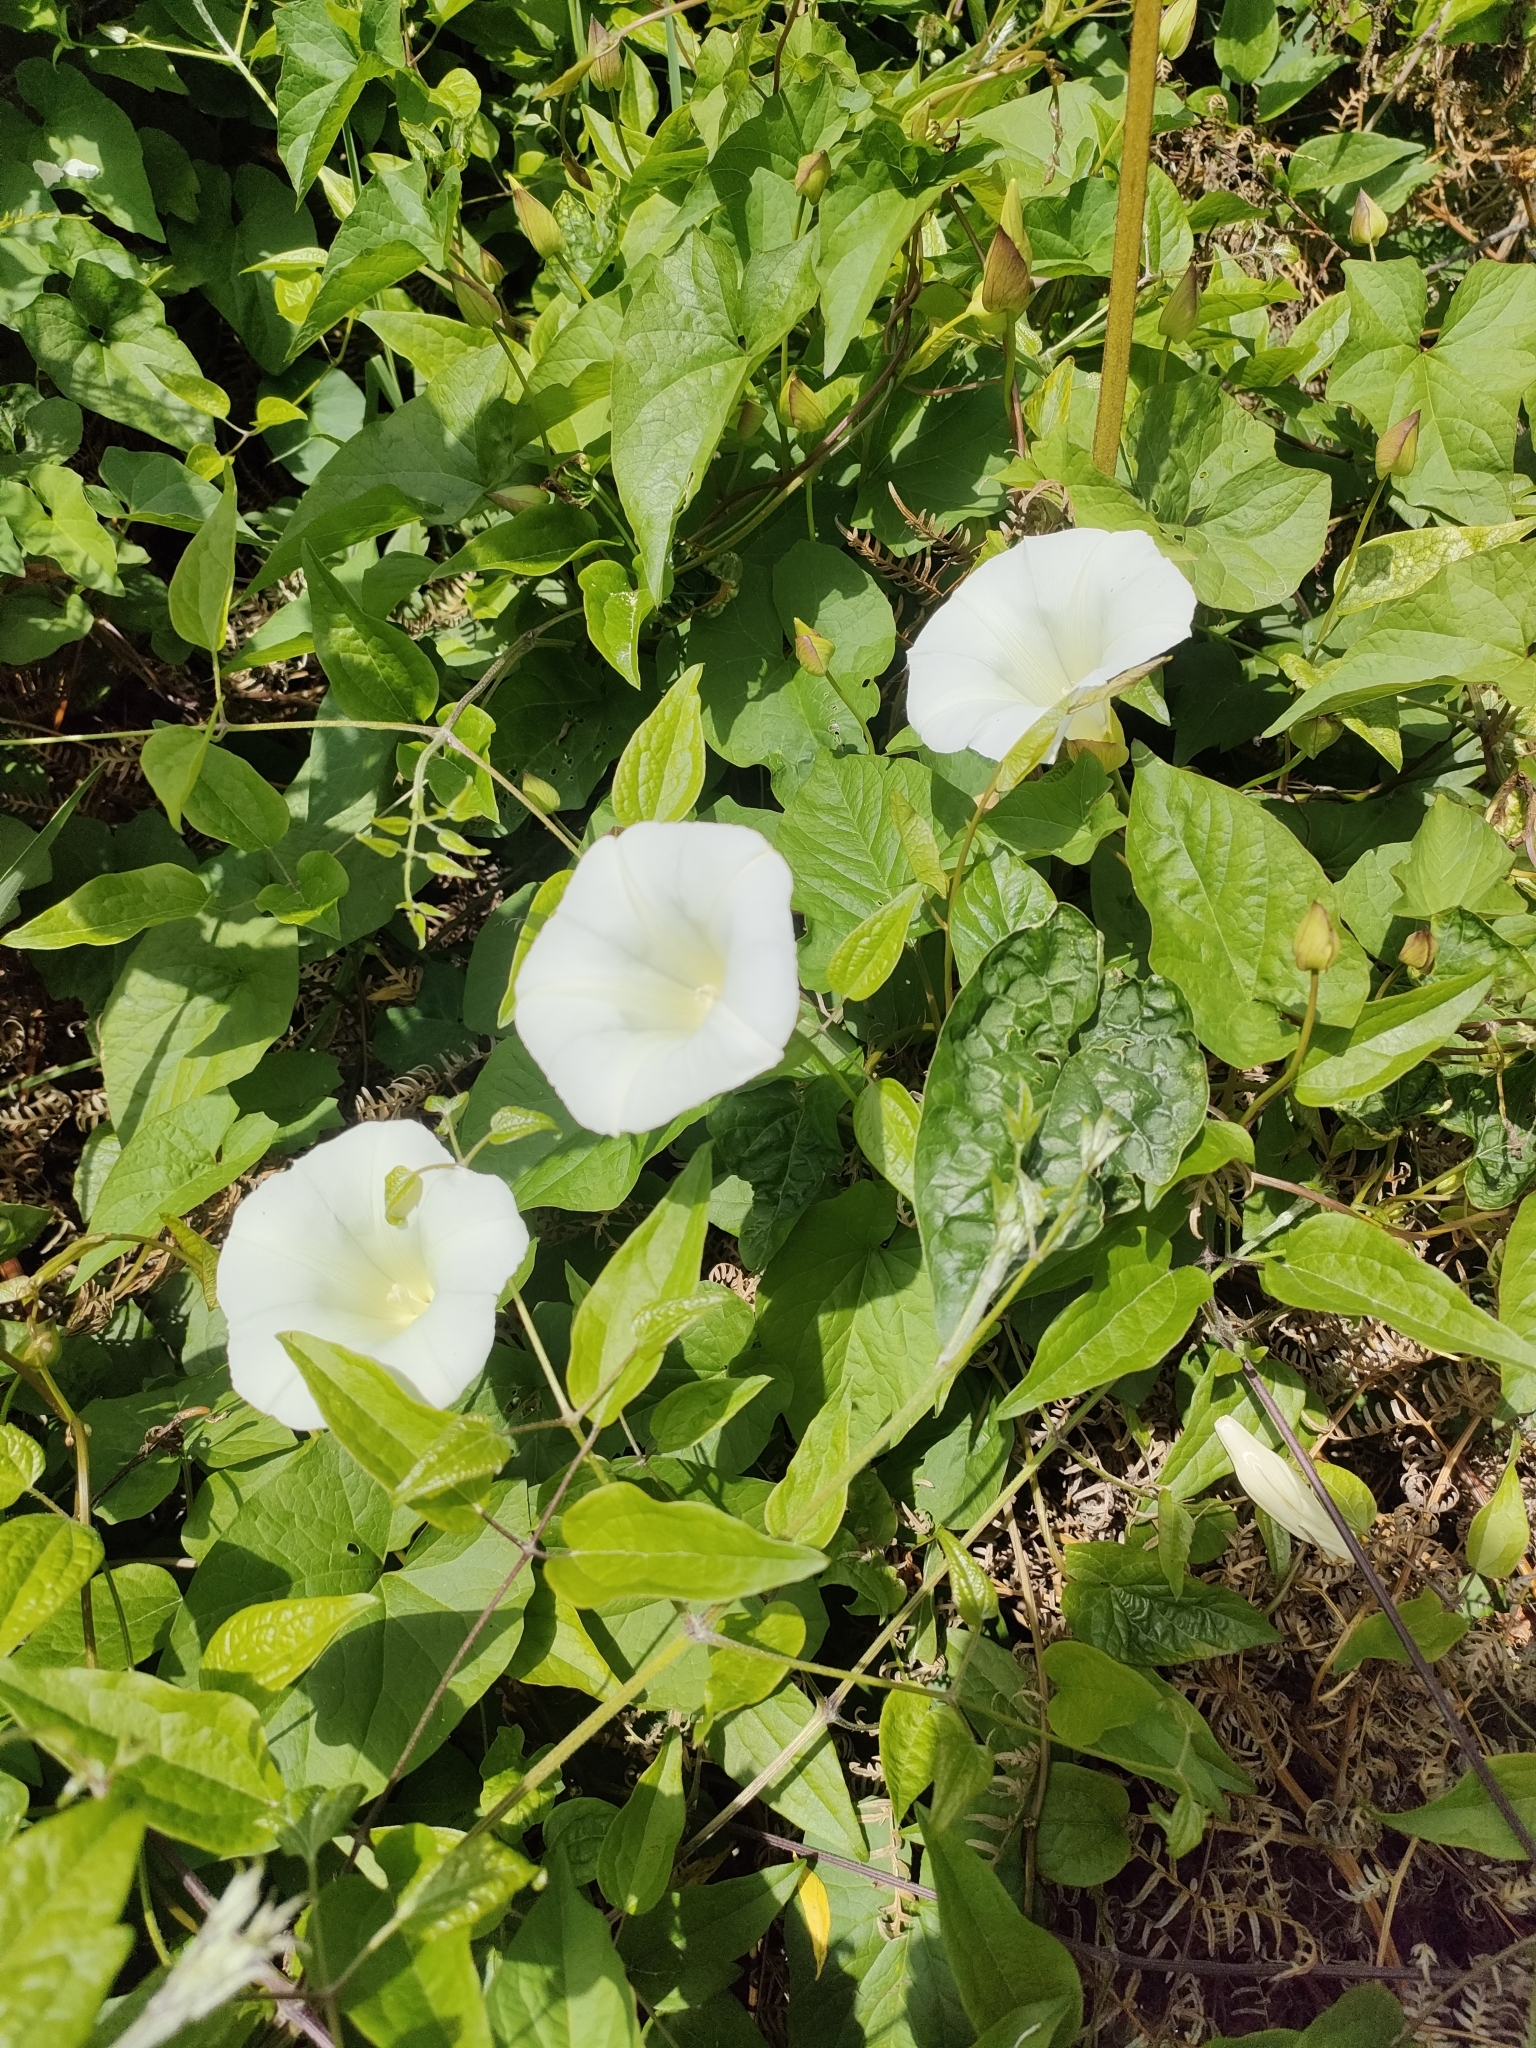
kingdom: Plantae
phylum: Tracheophyta
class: Magnoliopsida
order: Solanales
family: Convolvulaceae
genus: Calystegia
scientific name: Calystegia silvatica
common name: Large bindweed
